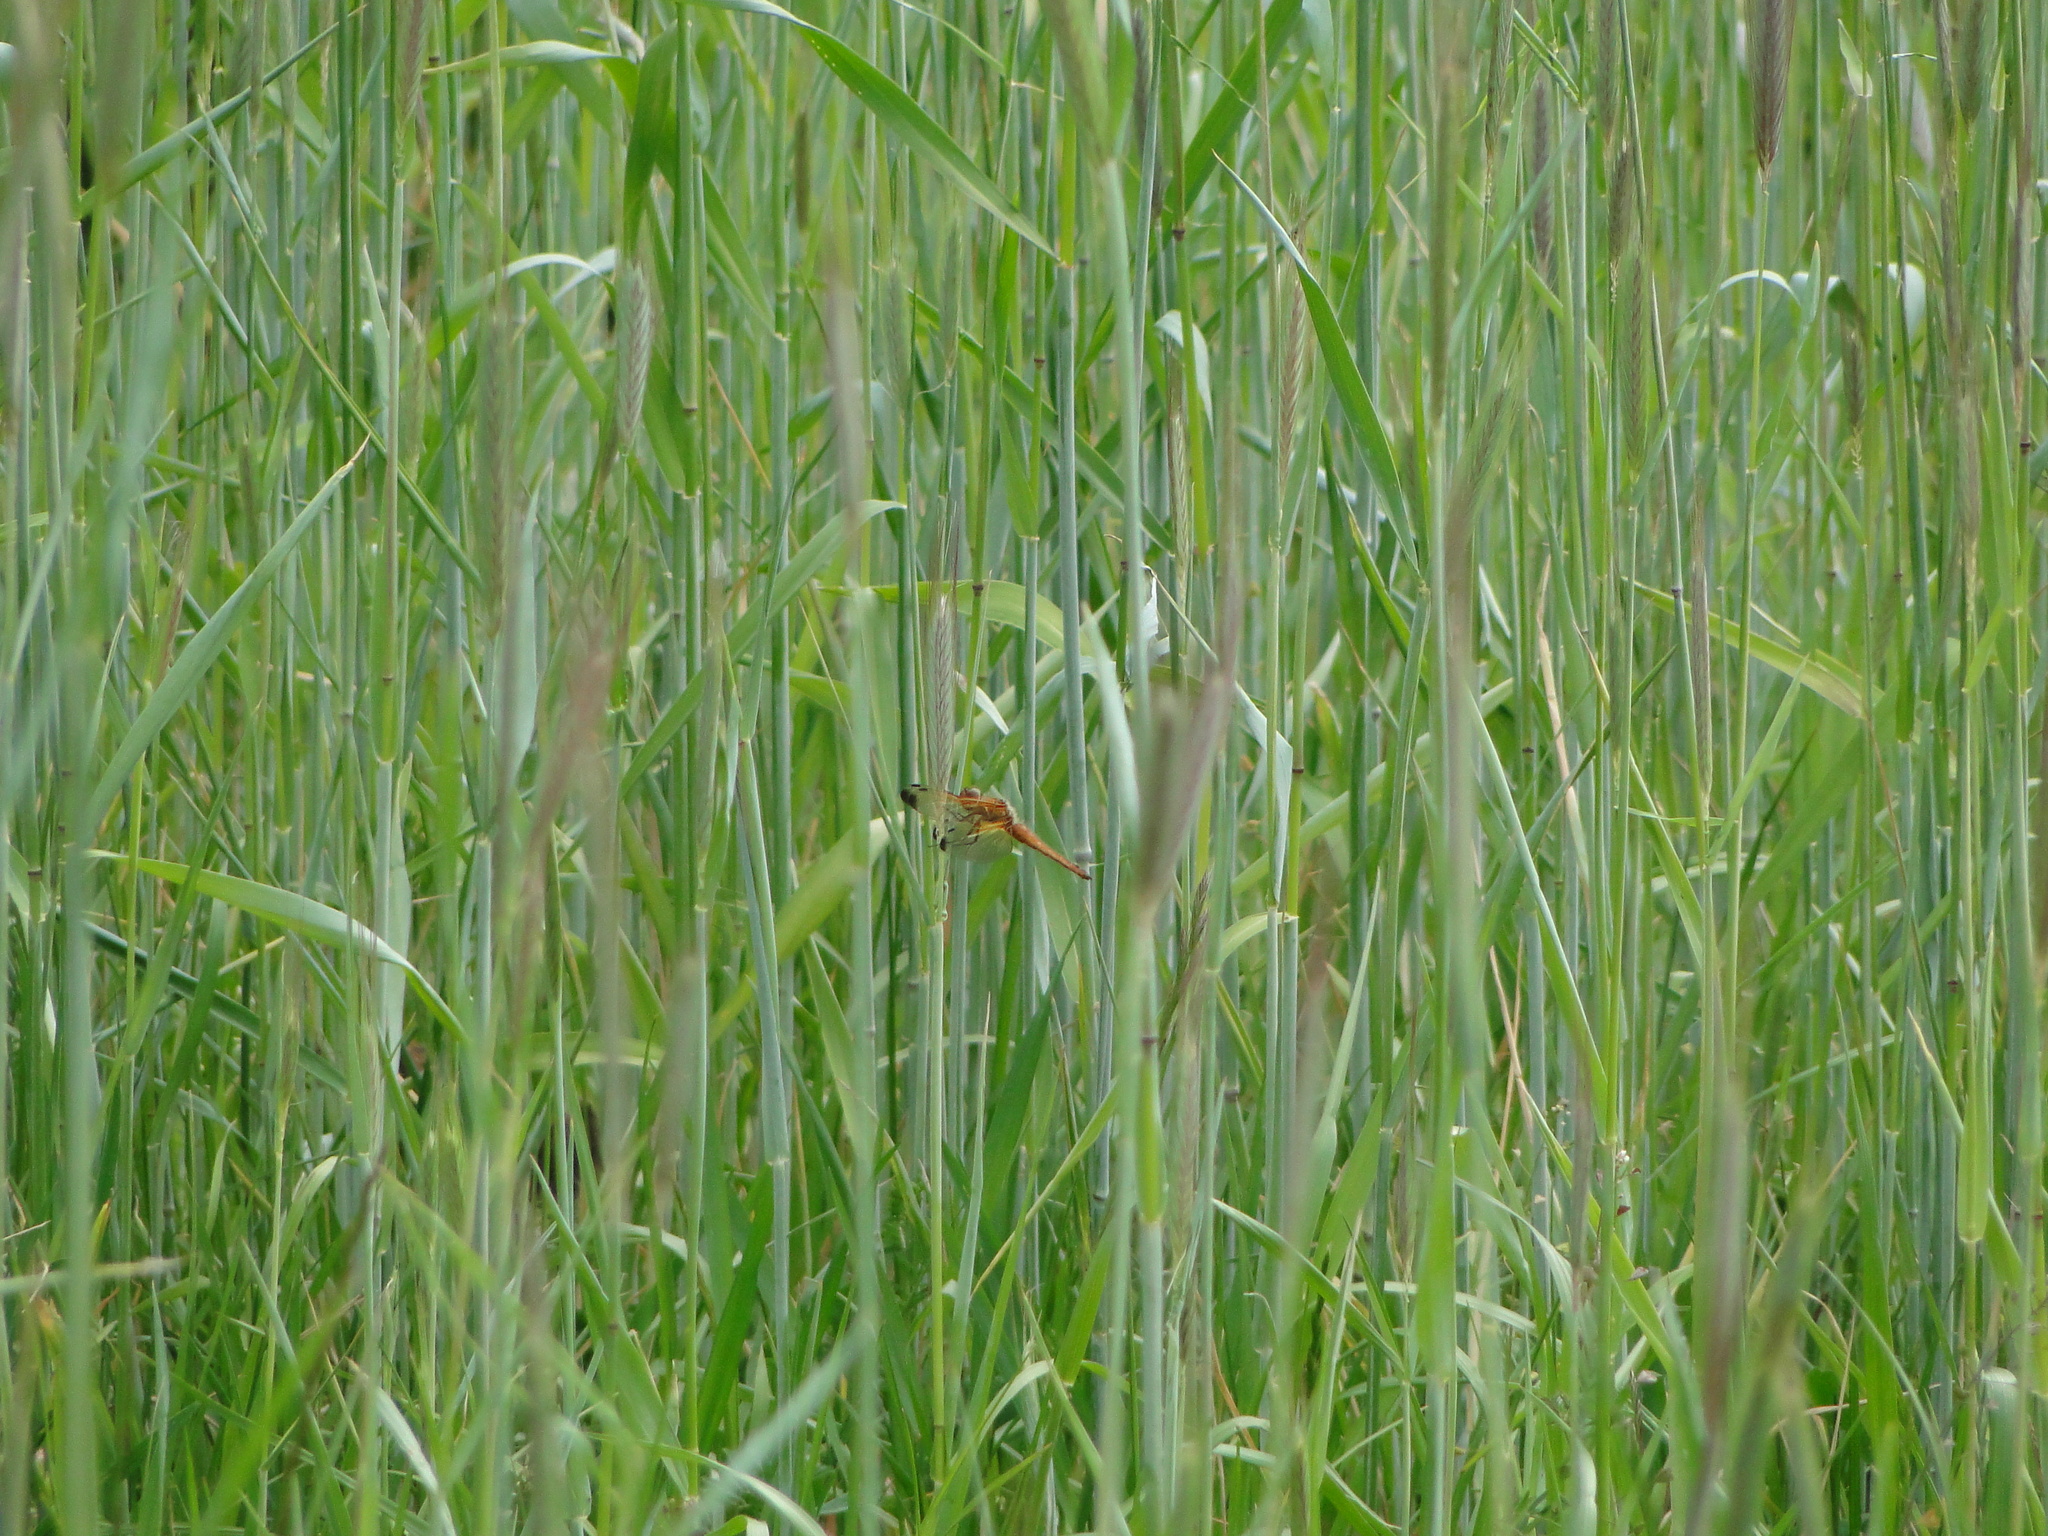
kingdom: Animalia
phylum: Arthropoda
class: Insecta
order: Odonata
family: Libellulidae
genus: Libellula
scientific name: Libellula fulva
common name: Blue chaser
